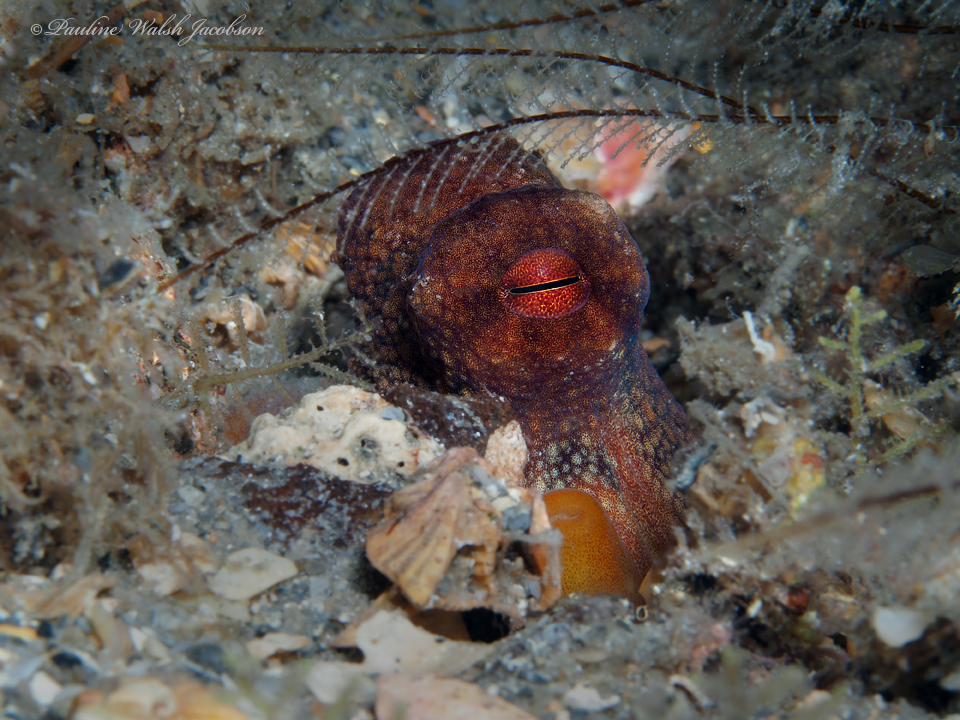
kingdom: Animalia
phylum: Mollusca
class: Cephalopoda
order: Octopoda
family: Octopodidae
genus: Octopus
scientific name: Octopus americanus
